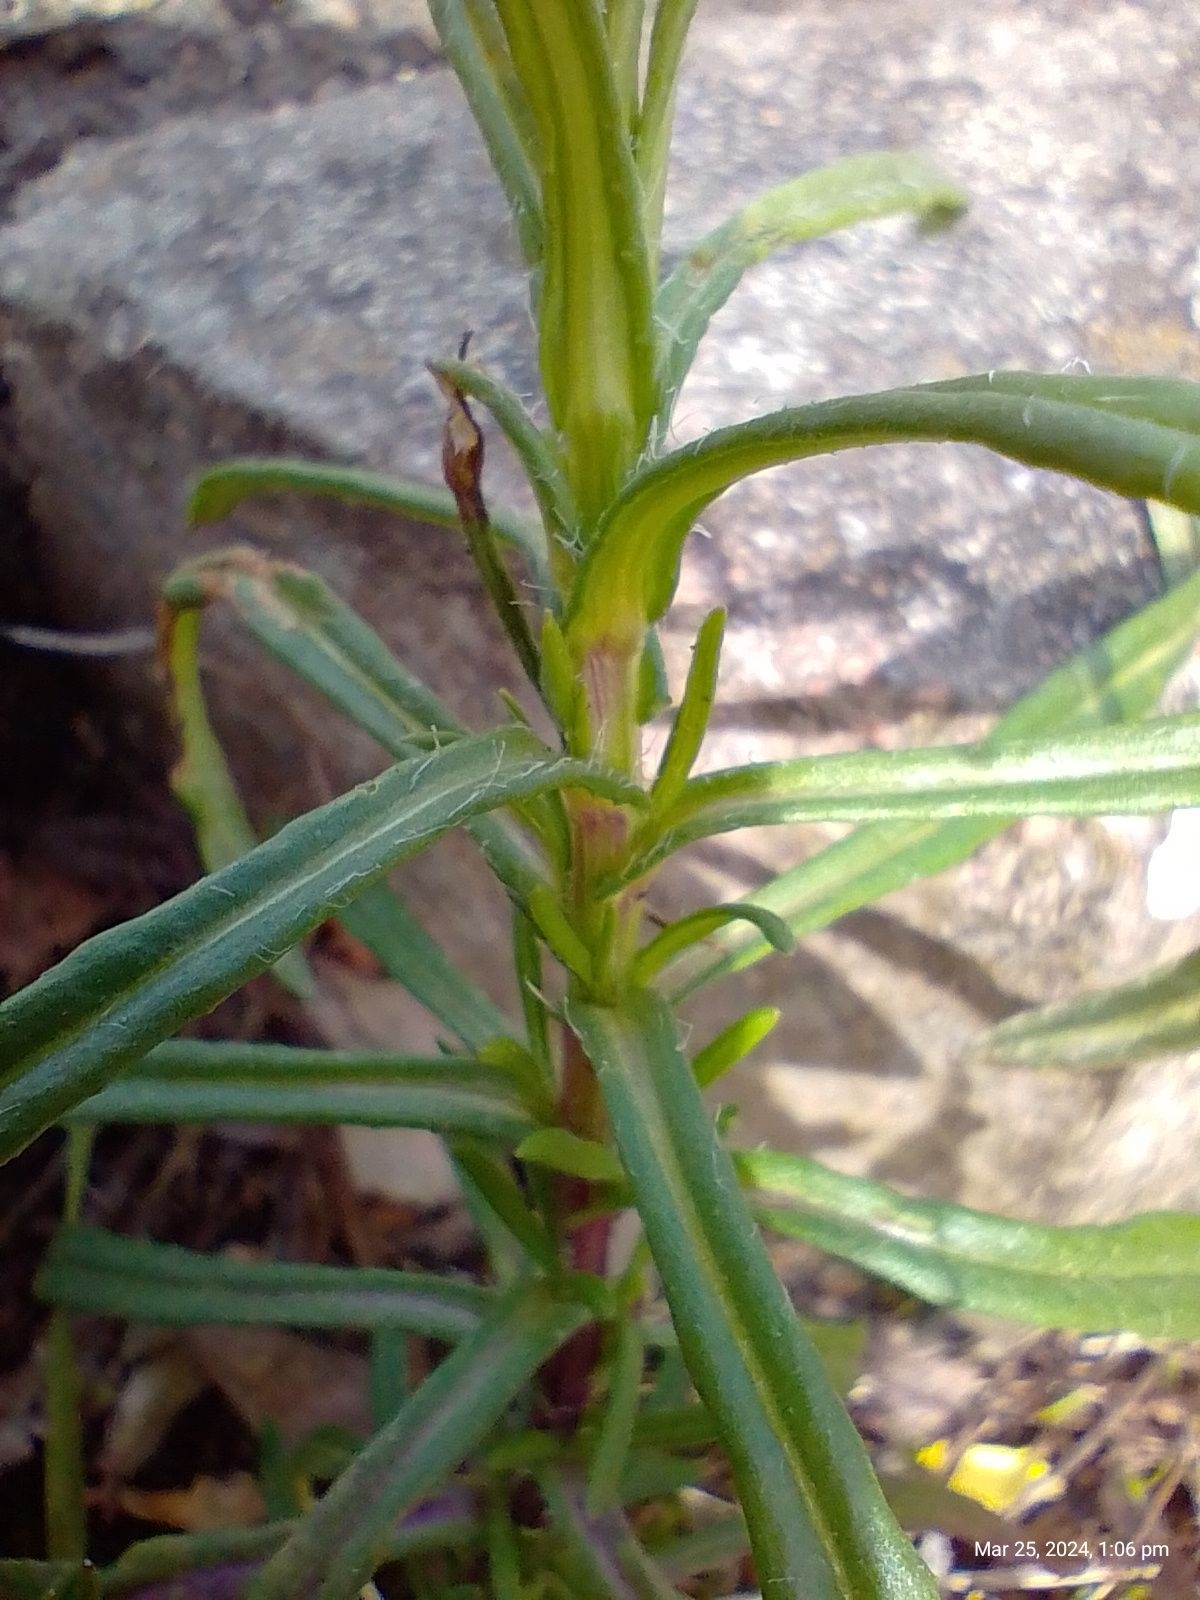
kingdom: Plantae
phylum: Tracheophyta
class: Magnoliopsida
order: Asterales
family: Asteraceae
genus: Senecio
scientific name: Senecio inaequidens
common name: Narrow-leaved ragwort
